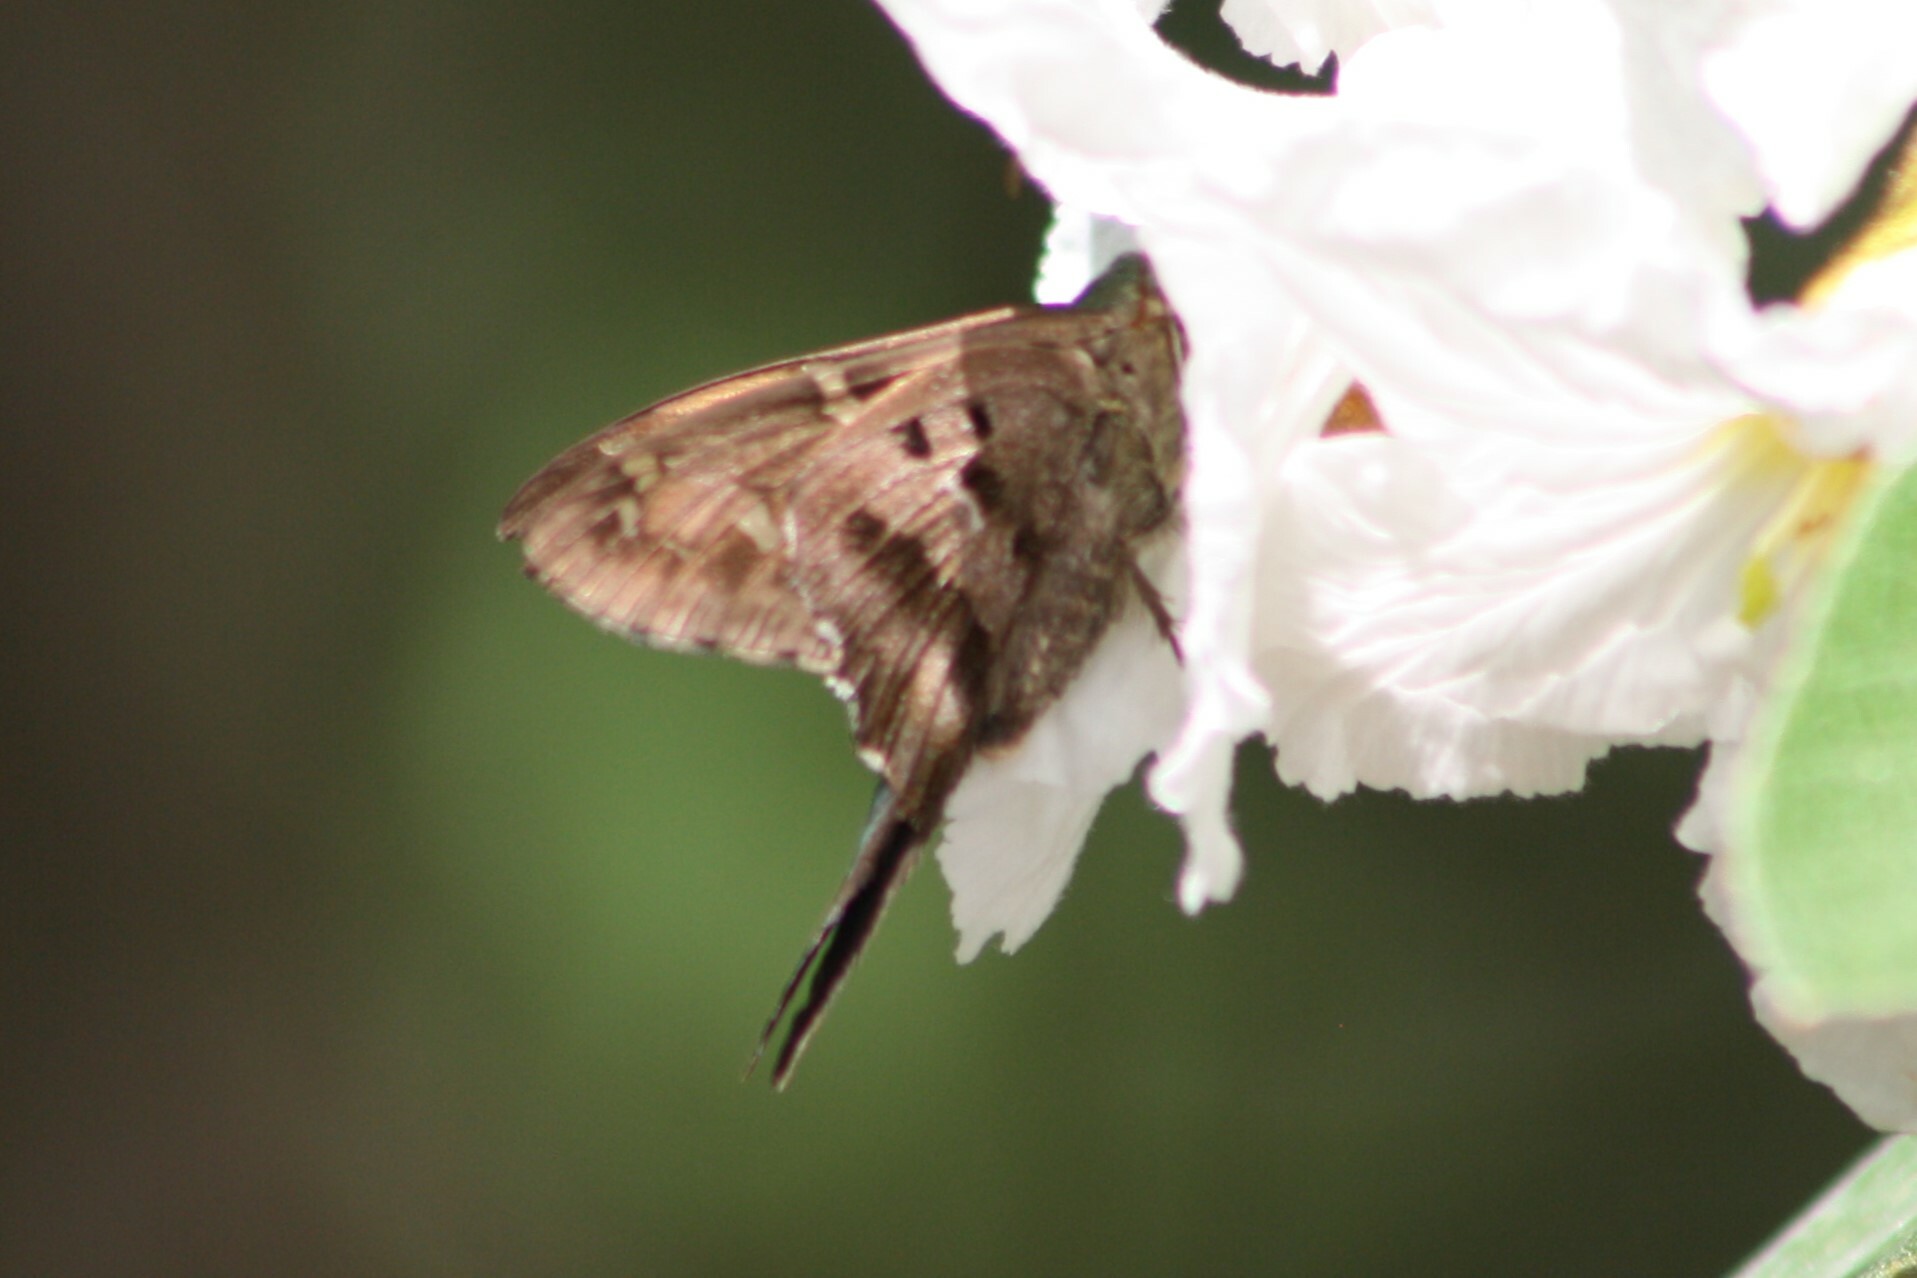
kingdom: Animalia
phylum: Arthropoda
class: Insecta
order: Lepidoptera
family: Hesperiidae
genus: Urbanus
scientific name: Urbanus proteus
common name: Long-tailed skipper
